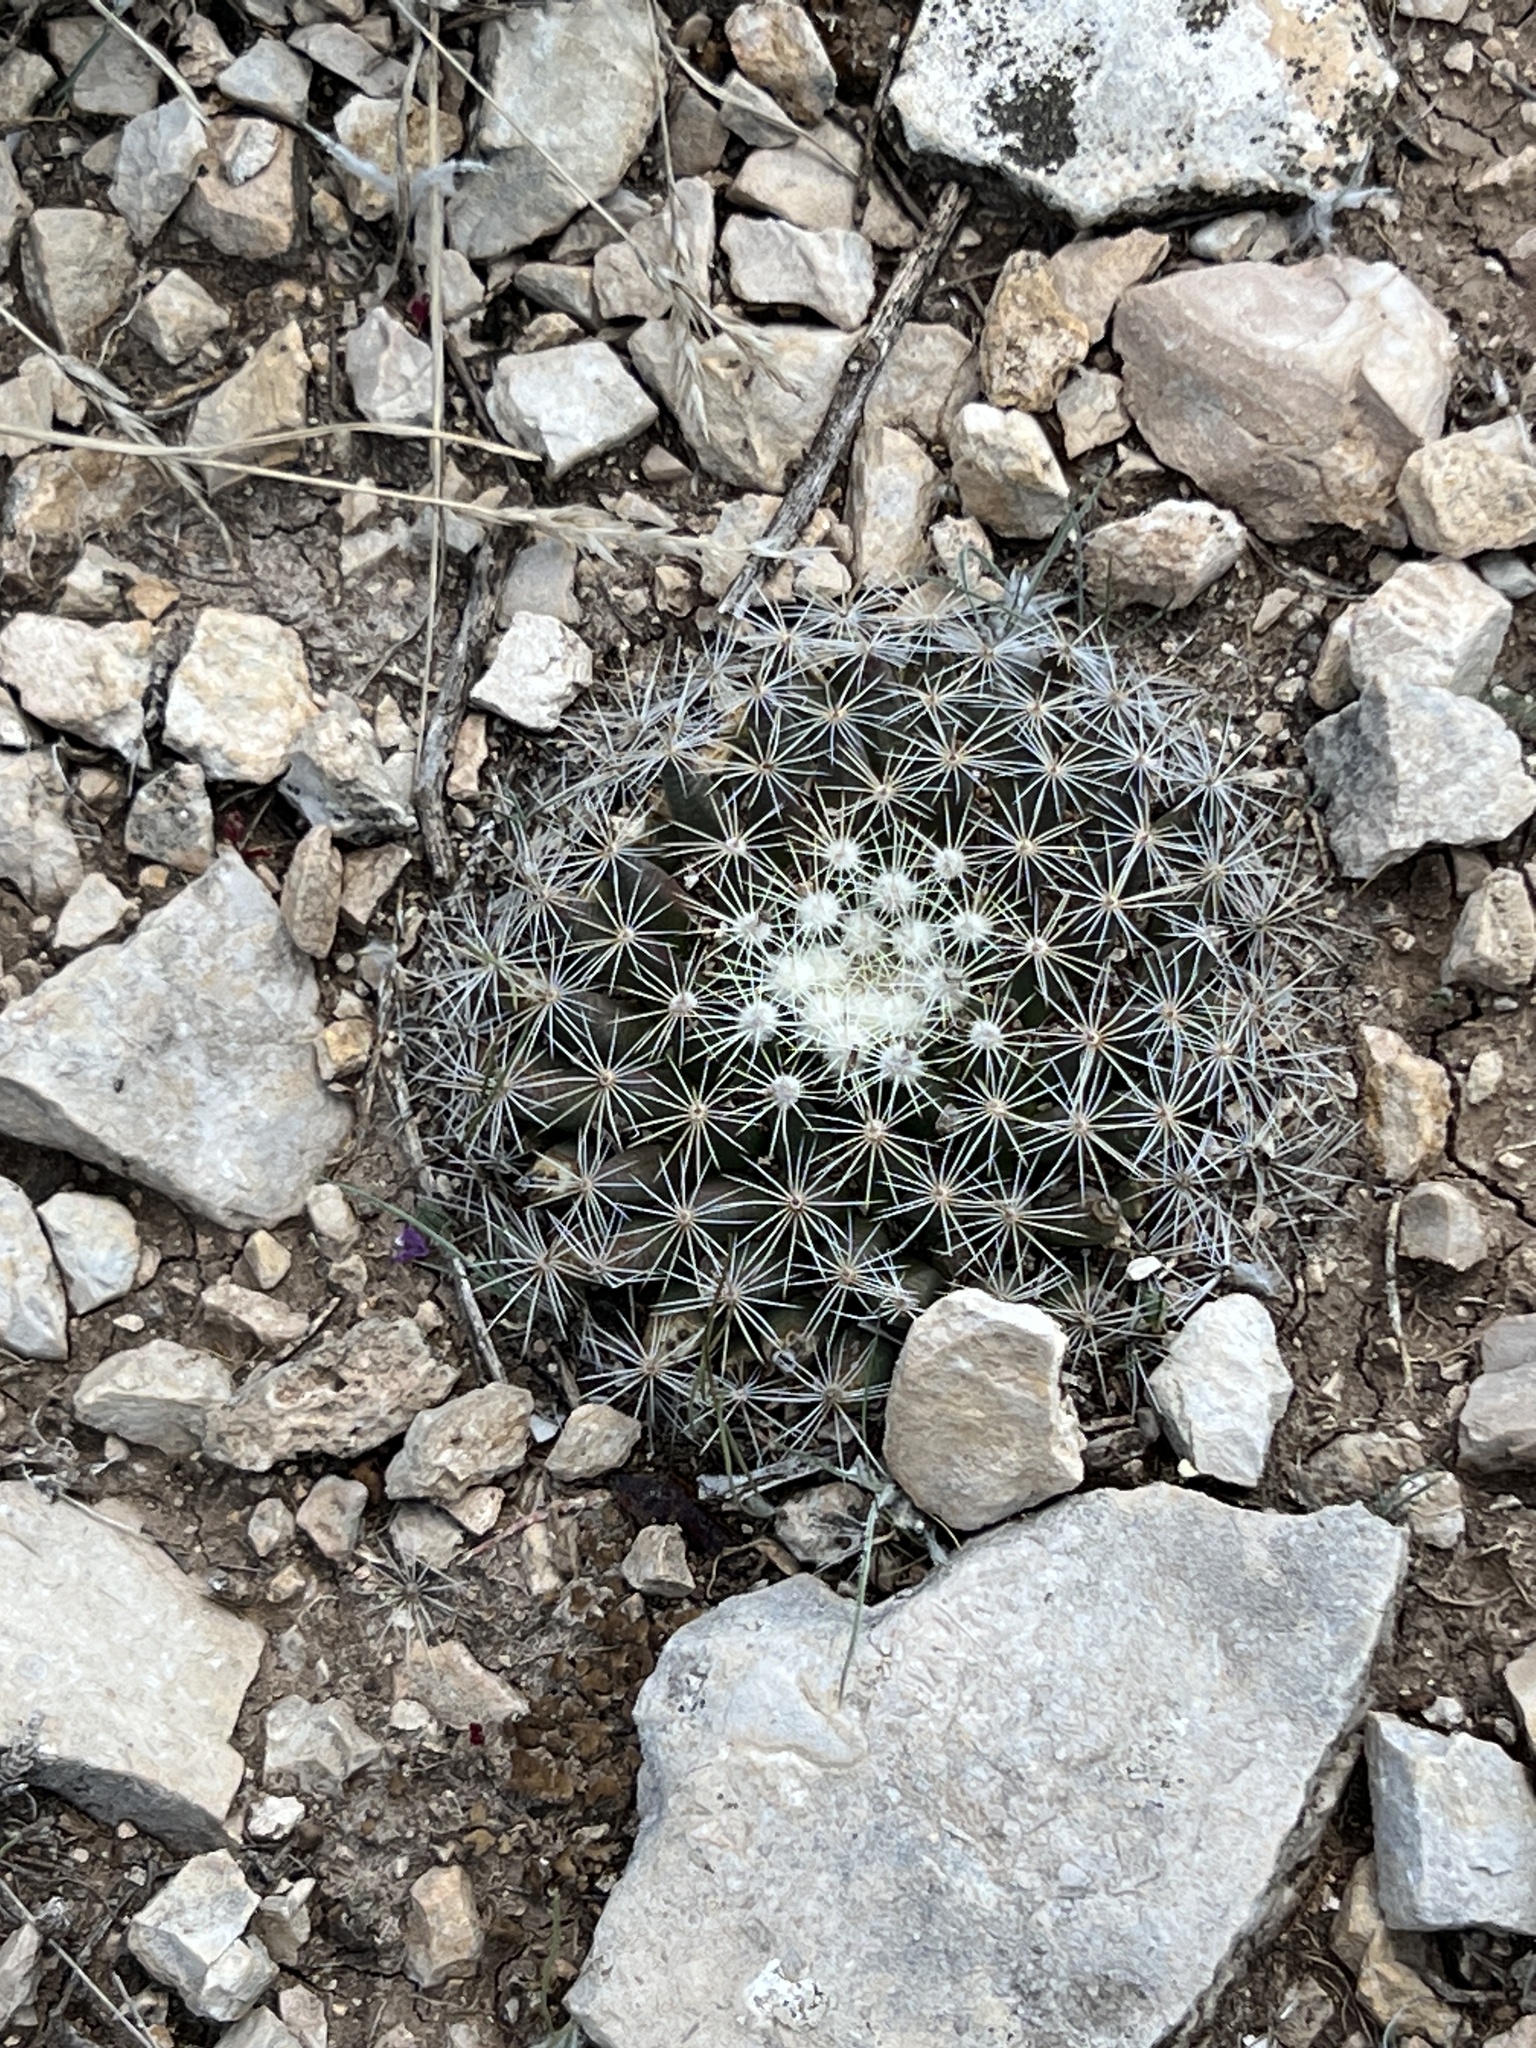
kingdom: Plantae
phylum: Tracheophyta
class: Magnoliopsida
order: Caryophyllales
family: Cactaceae
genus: Mammillaria
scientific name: Mammillaria heyderi
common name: Little nipple cactus
